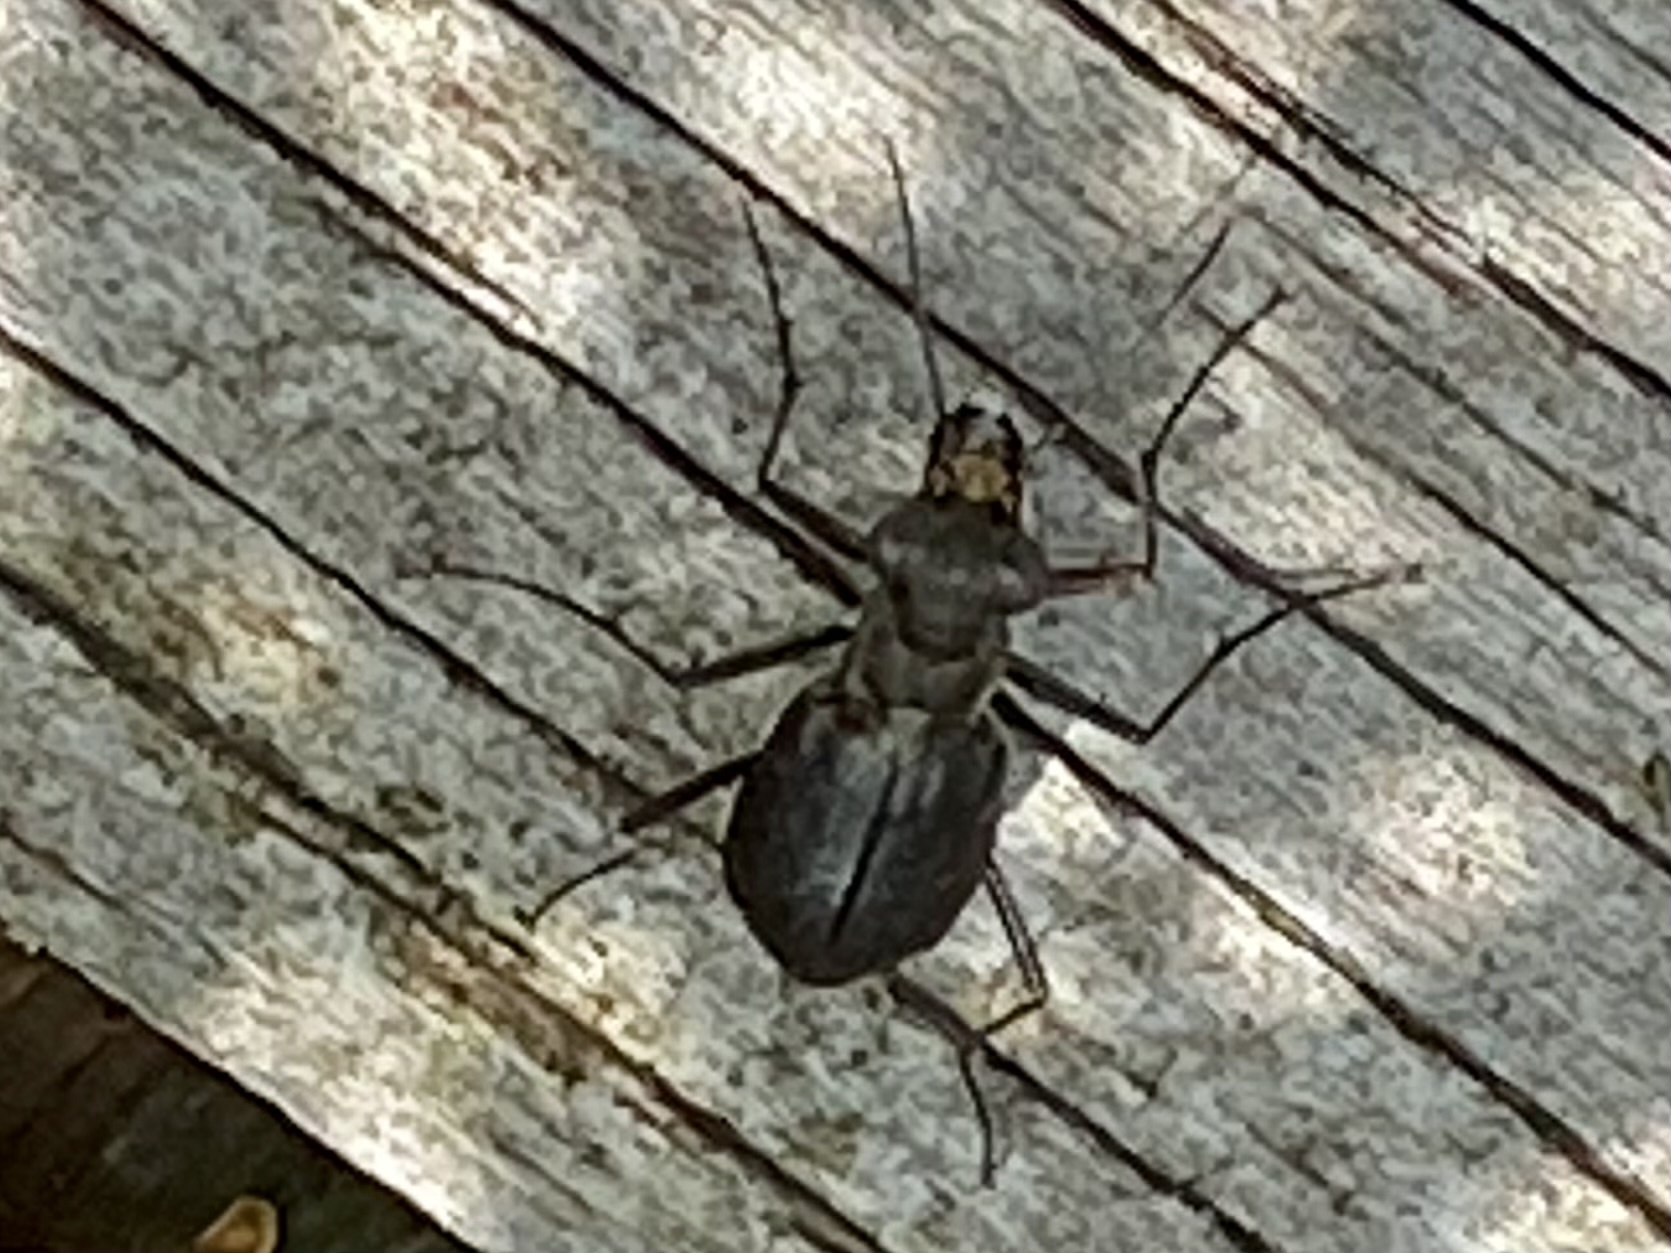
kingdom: Animalia
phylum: Arthropoda
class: Insecta
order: Coleoptera
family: Carabidae
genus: Cicindela
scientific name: Cicindela punctulata
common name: Punctured tiger beetle
